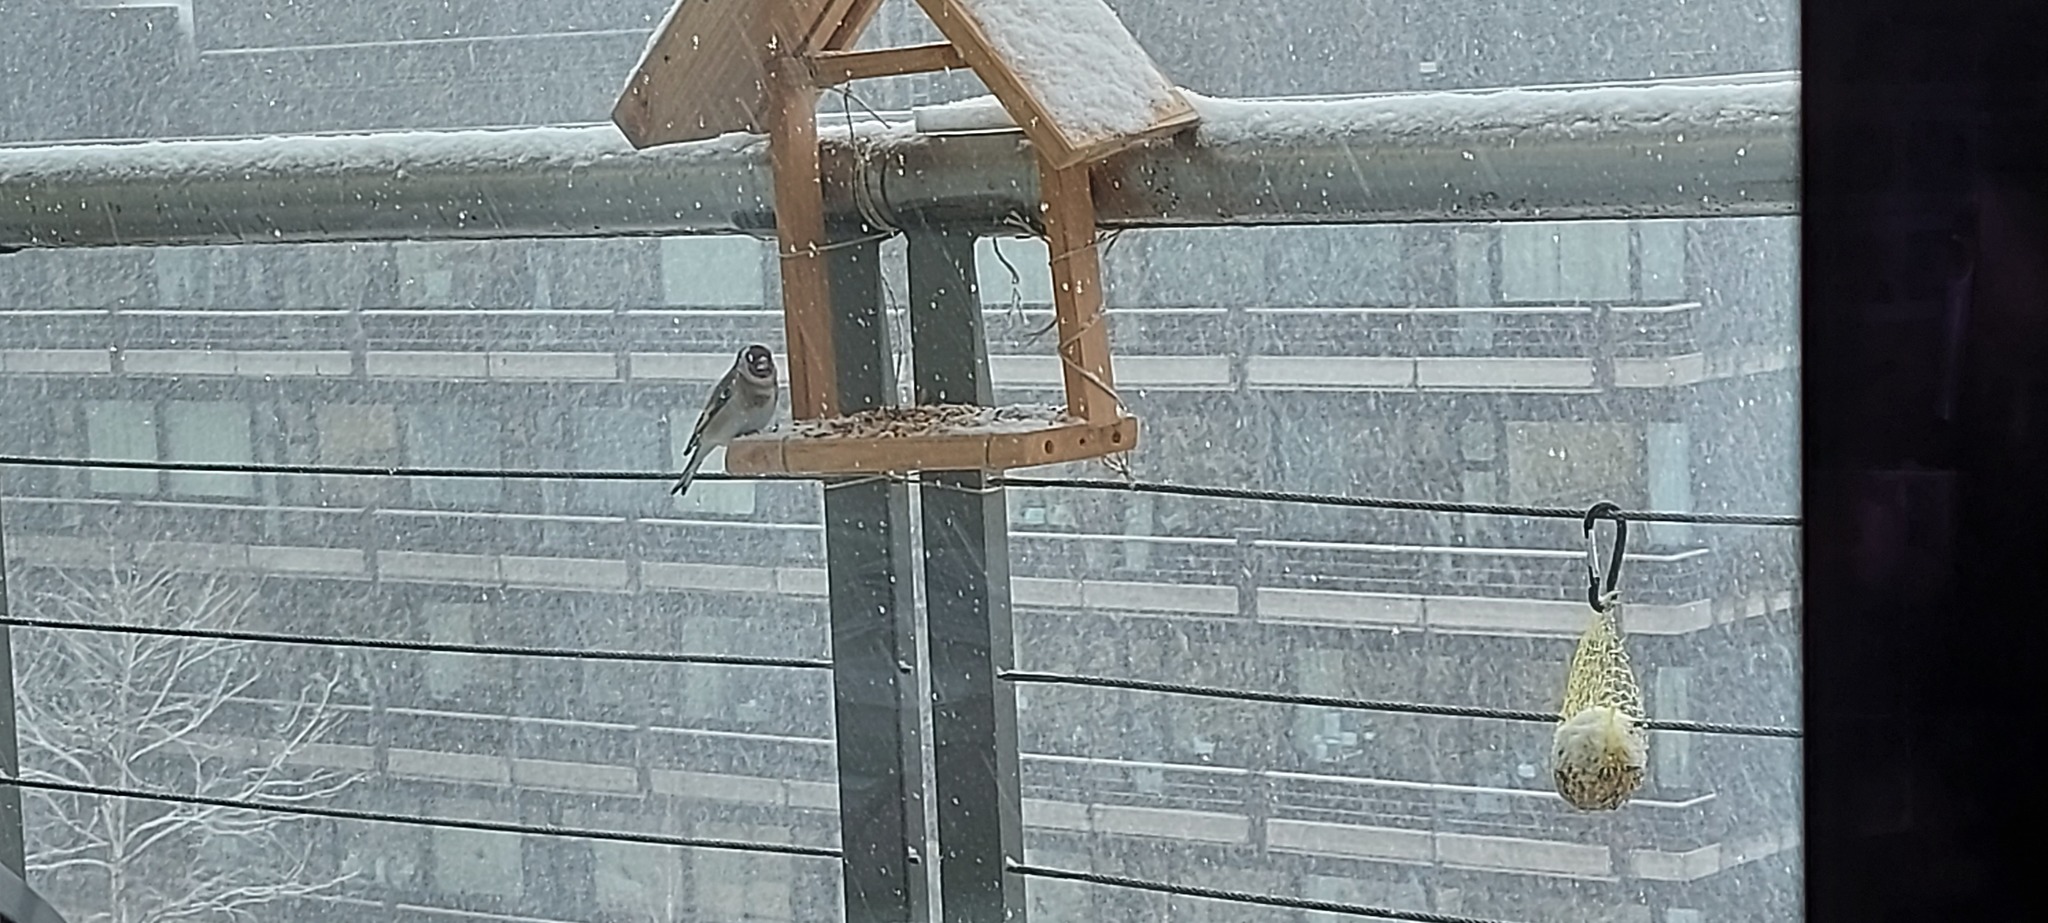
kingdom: Animalia
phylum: Chordata
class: Aves
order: Passeriformes
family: Fringillidae
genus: Carduelis
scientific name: Carduelis carduelis
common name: European goldfinch
